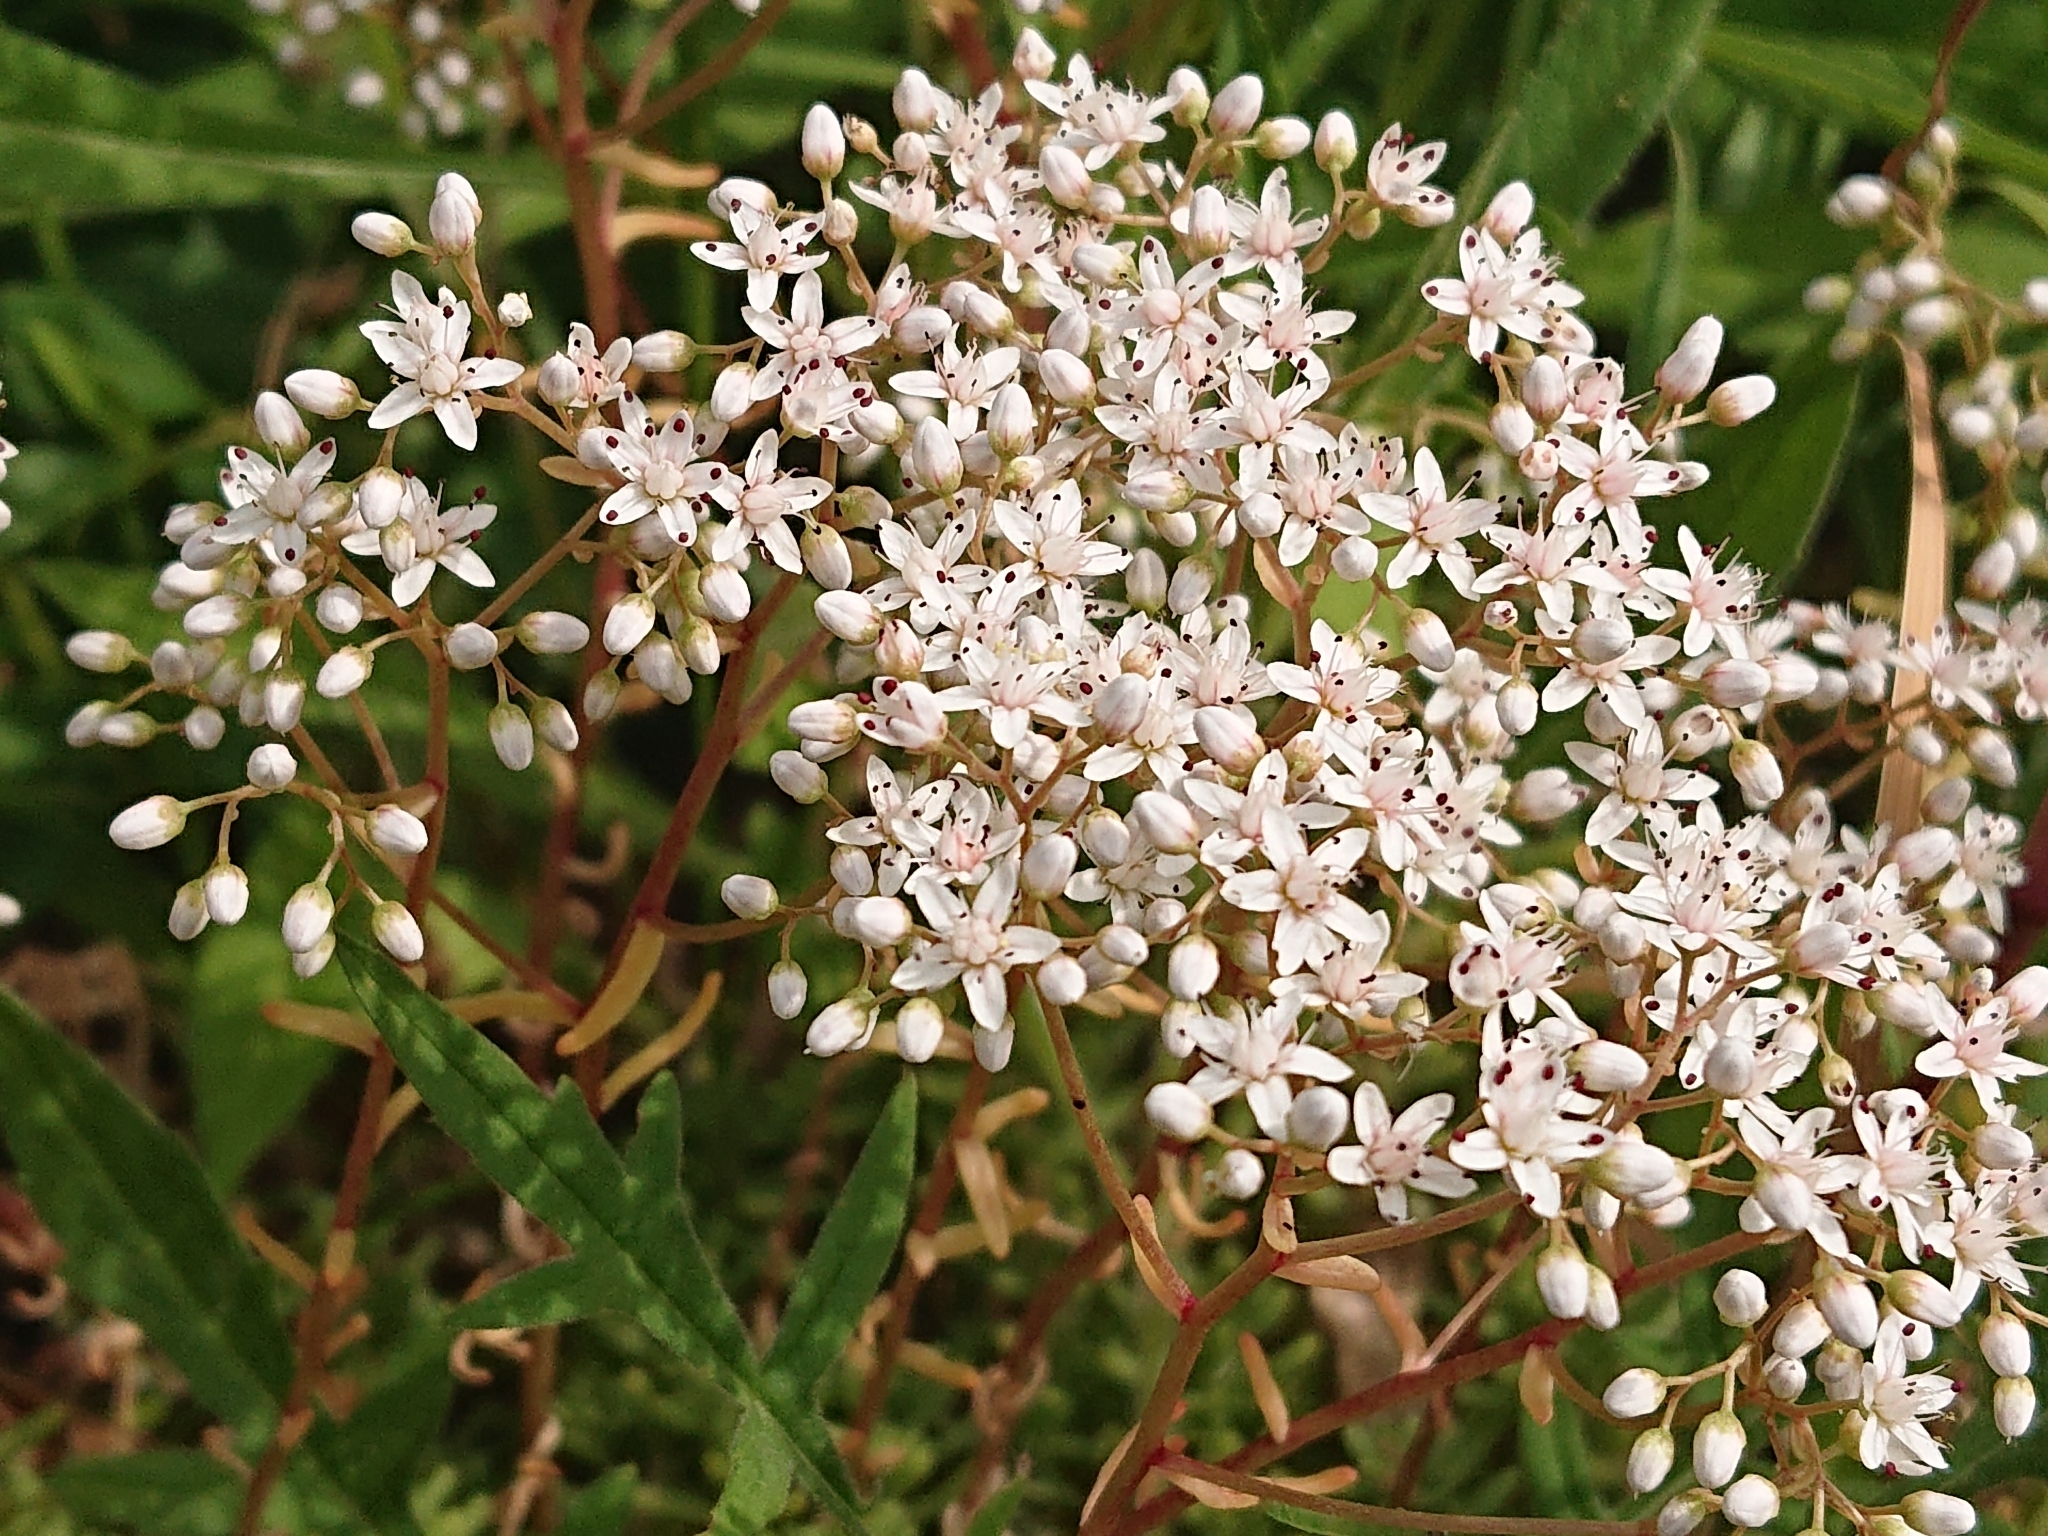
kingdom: Plantae
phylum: Tracheophyta
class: Magnoliopsida
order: Saxifragales
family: Crassulaceae
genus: Sedum
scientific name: Sedum album
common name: White stonecrop
